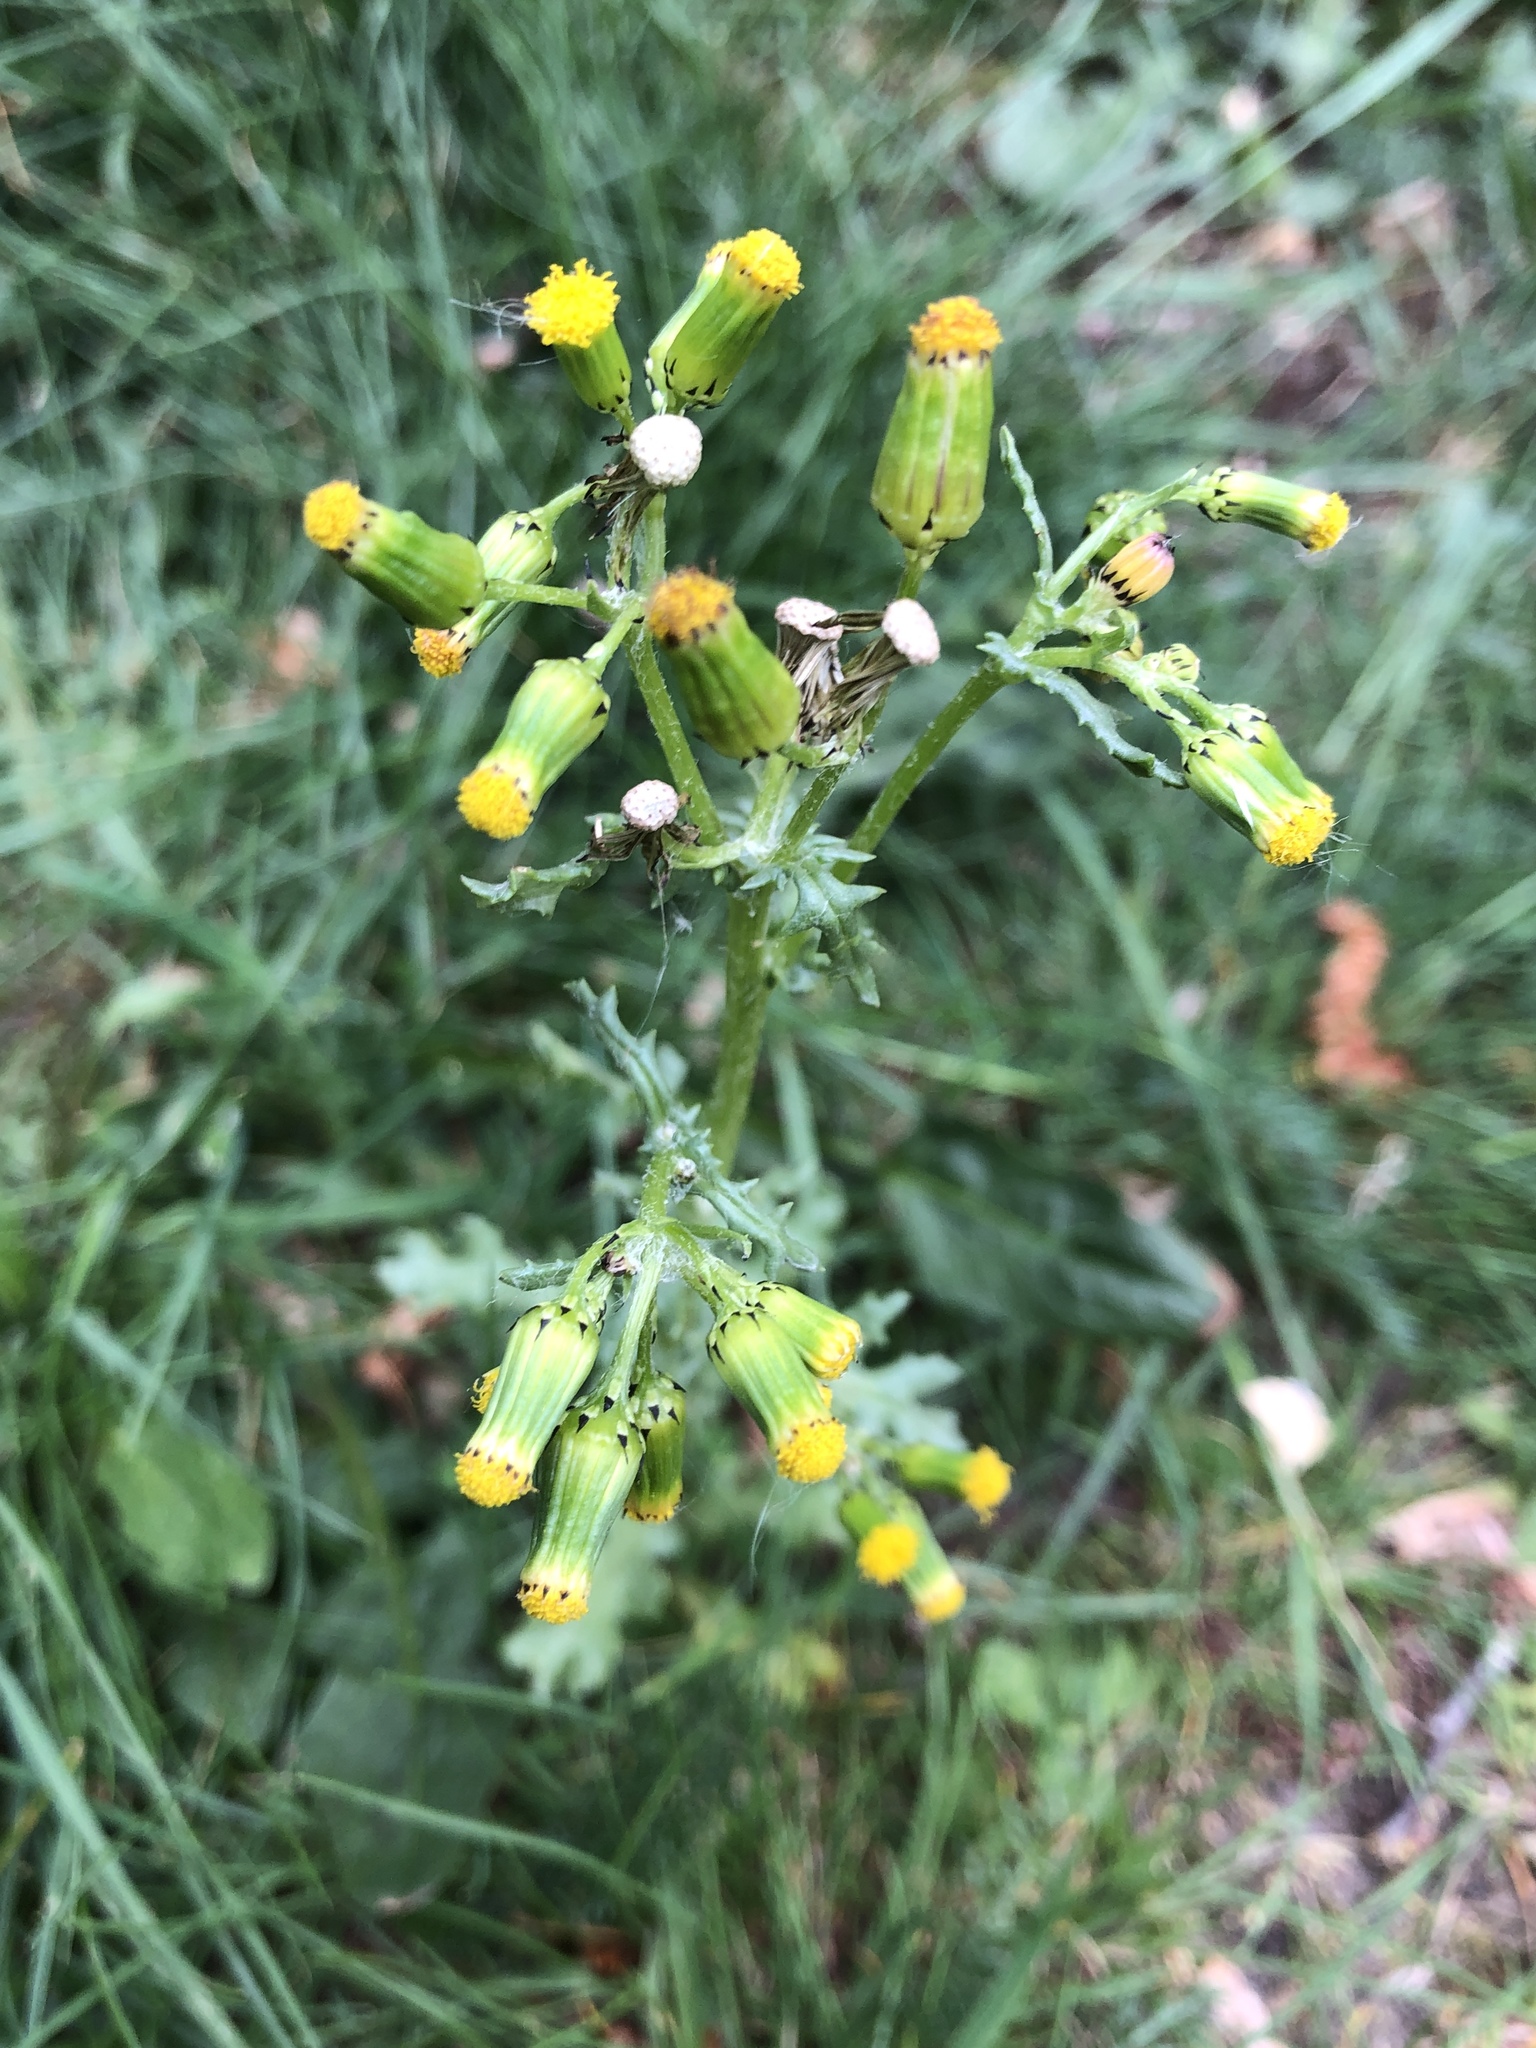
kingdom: Plantae
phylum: Tracheophyta
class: Magnoliopsida
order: Asterales
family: Asteraceae
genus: Senecio
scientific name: Senecio vulgaris
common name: Old-man-in-the-spring
